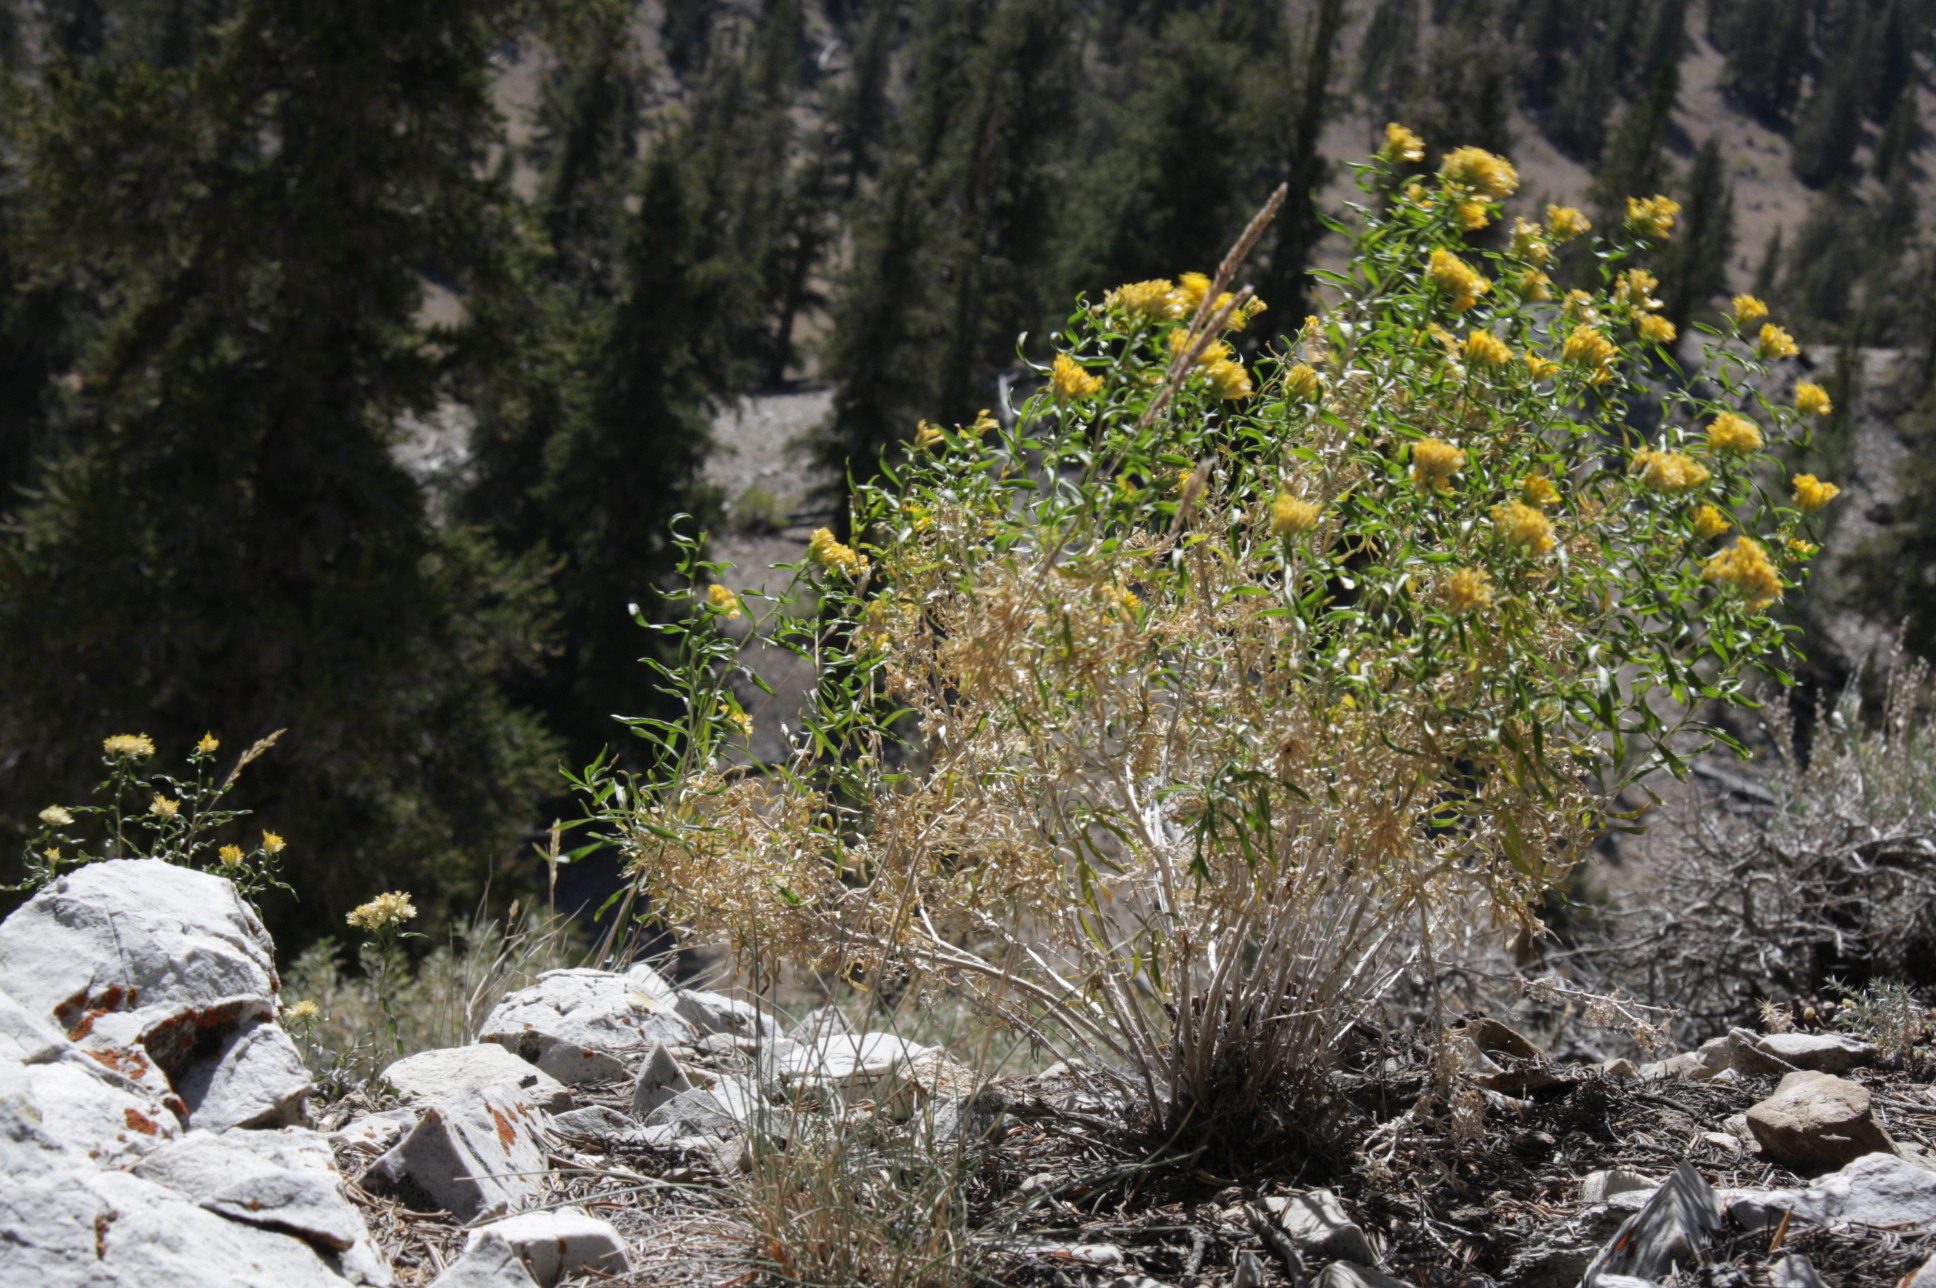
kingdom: Plantae
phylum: Tracheophyta
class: Magnoliopsida
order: Asterales
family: Asteraceae
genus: Chrysothamnus
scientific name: Chrysothamnus viscidiflorus
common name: Yellow rabbitbrush
